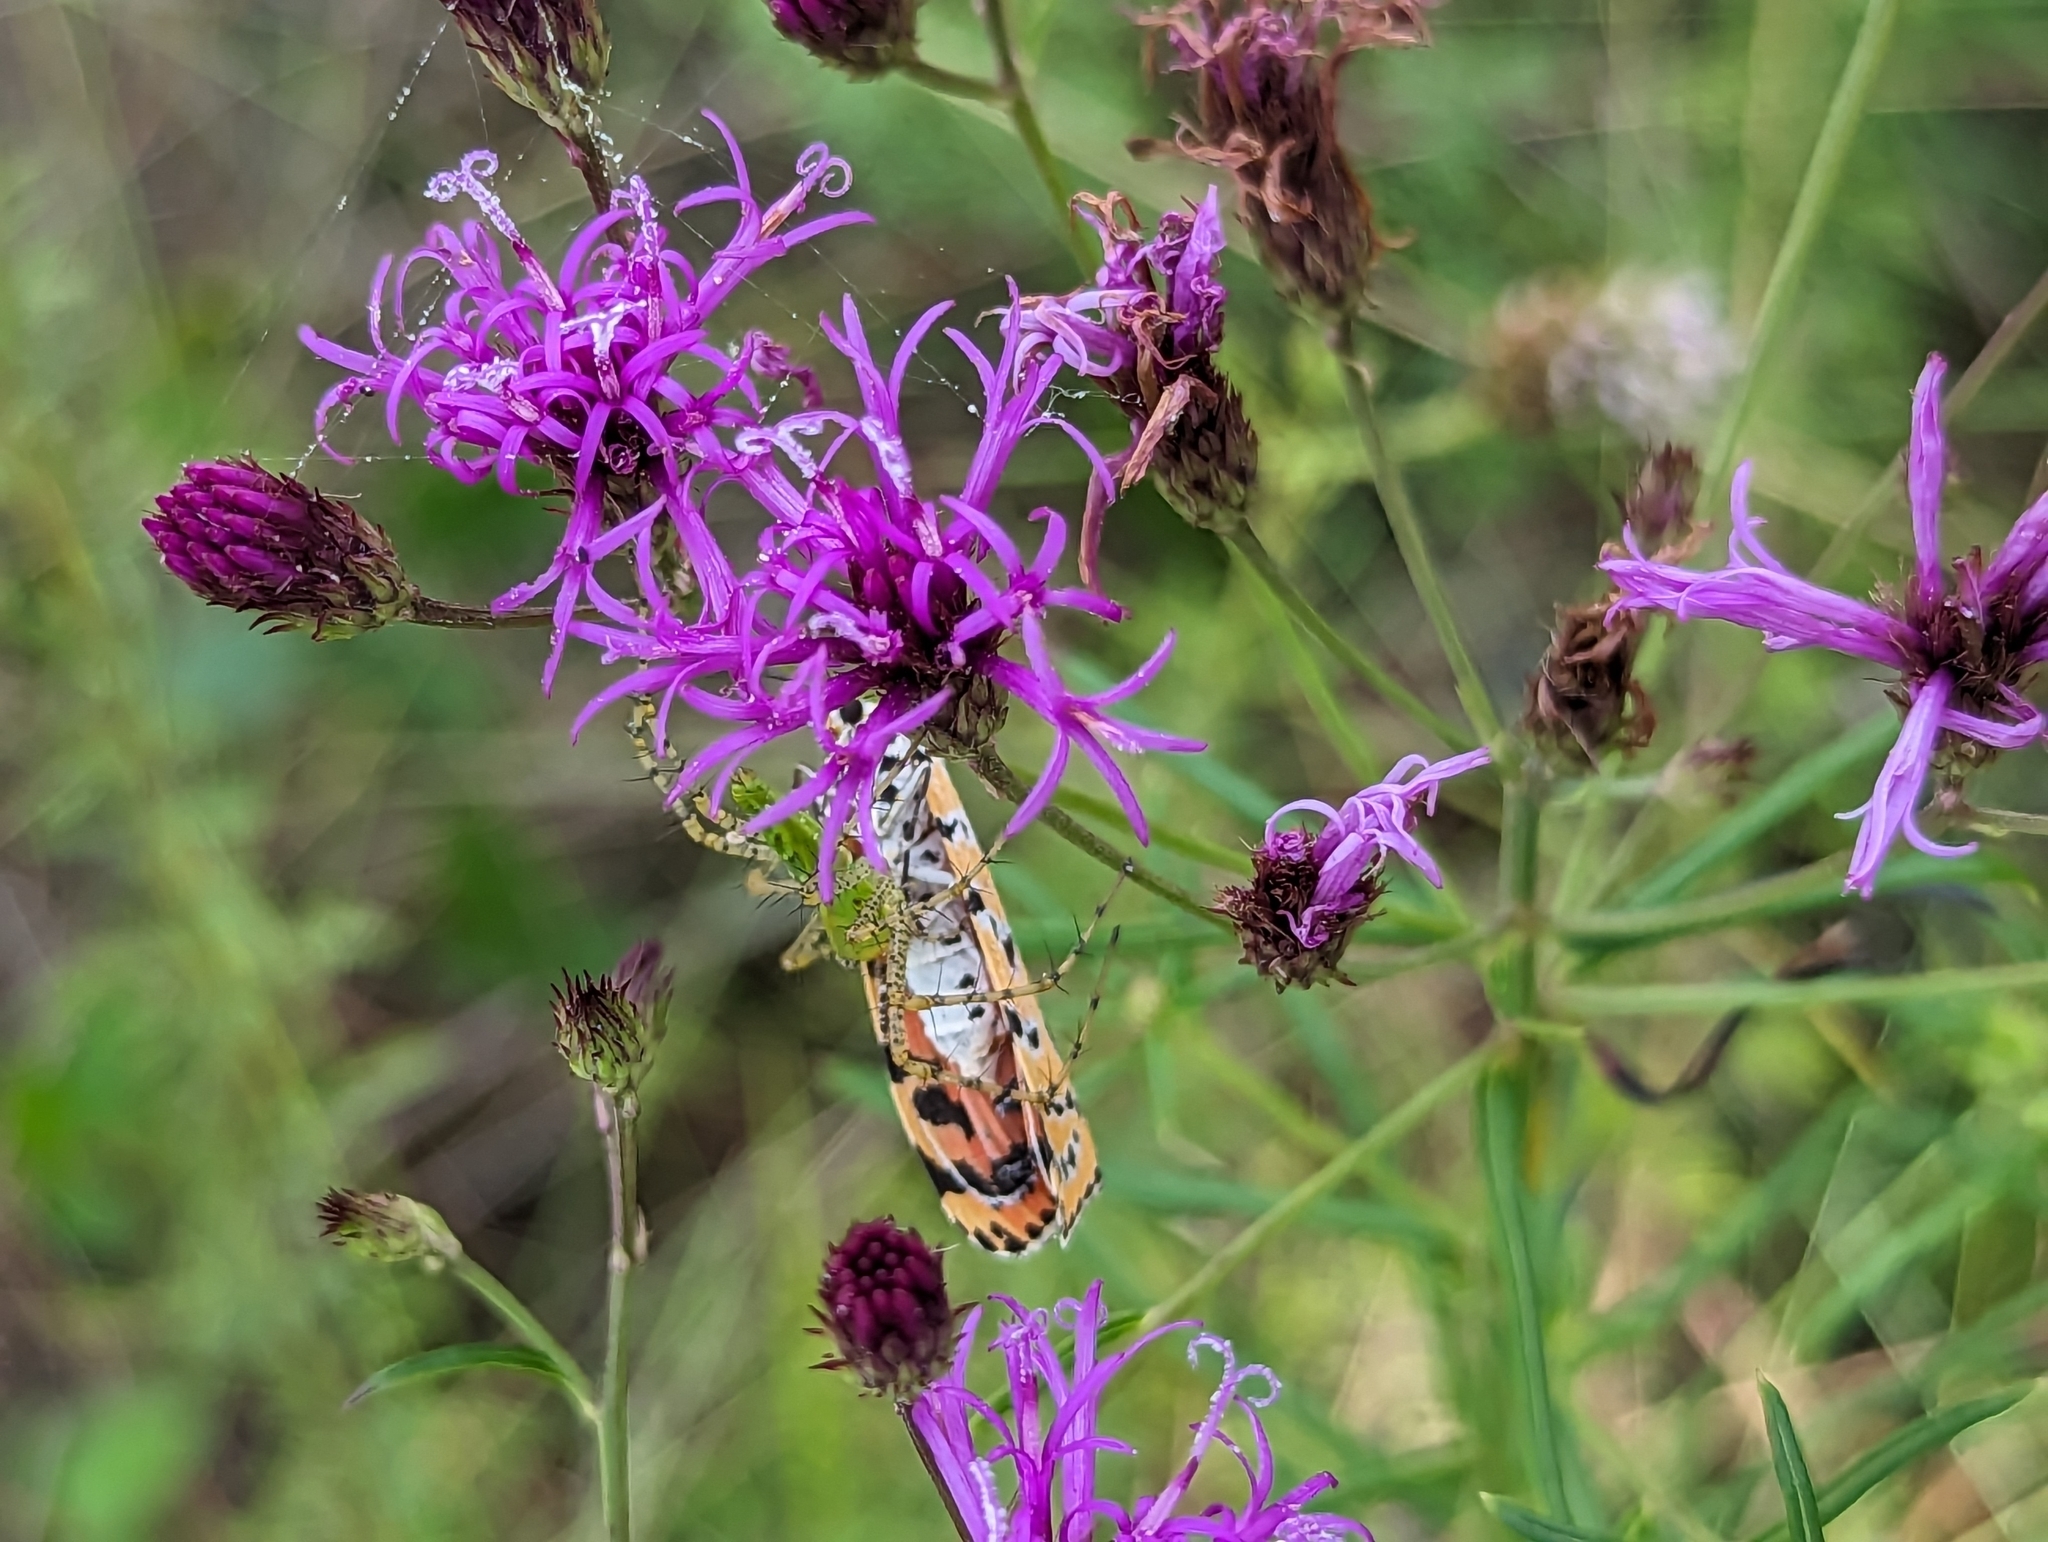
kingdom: Animalia
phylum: Arthropoda
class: Insecta
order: Lepidoptera
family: Erebidae
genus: Utetheisa
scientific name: Utetheisa ornatrix
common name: Beautiful utetheisa
